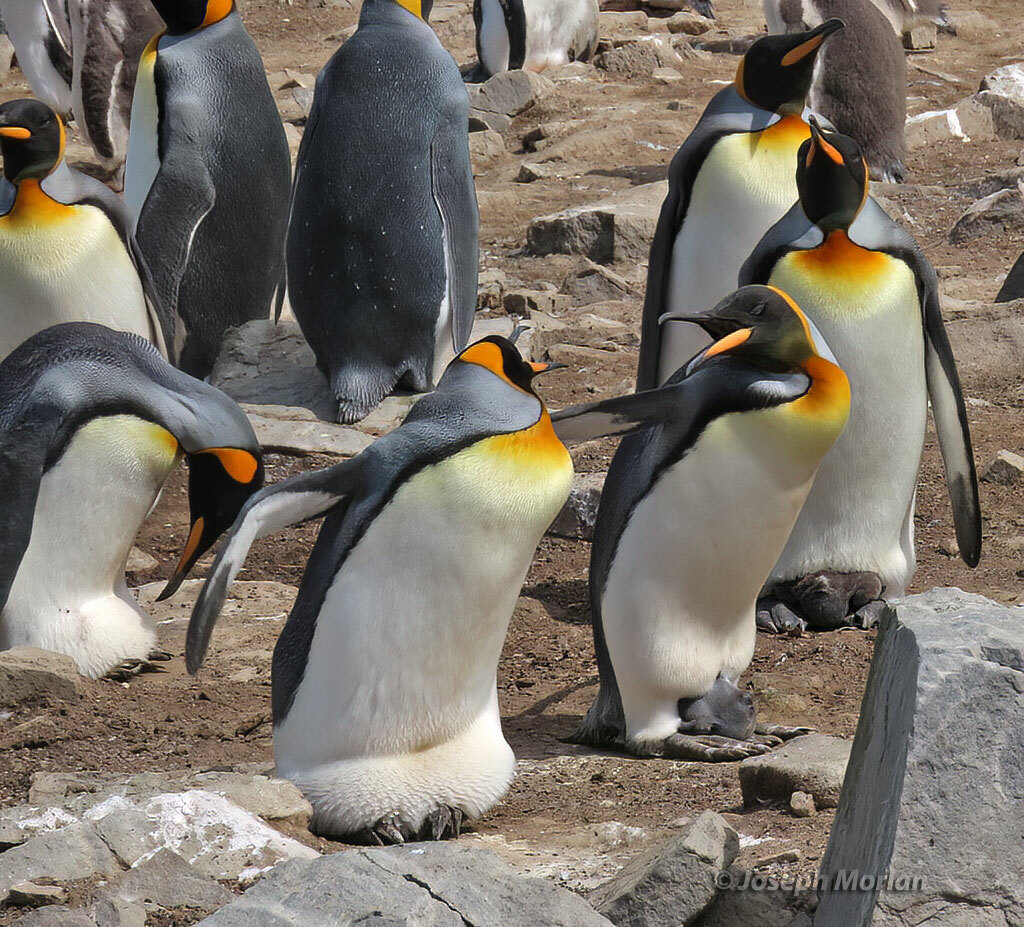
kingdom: Animalia
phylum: Chordata
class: Aves
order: Sphenisciformes
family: Spheniscidae
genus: Aptenodytes
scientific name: Aptenodytes patagonicus
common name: King penguin
